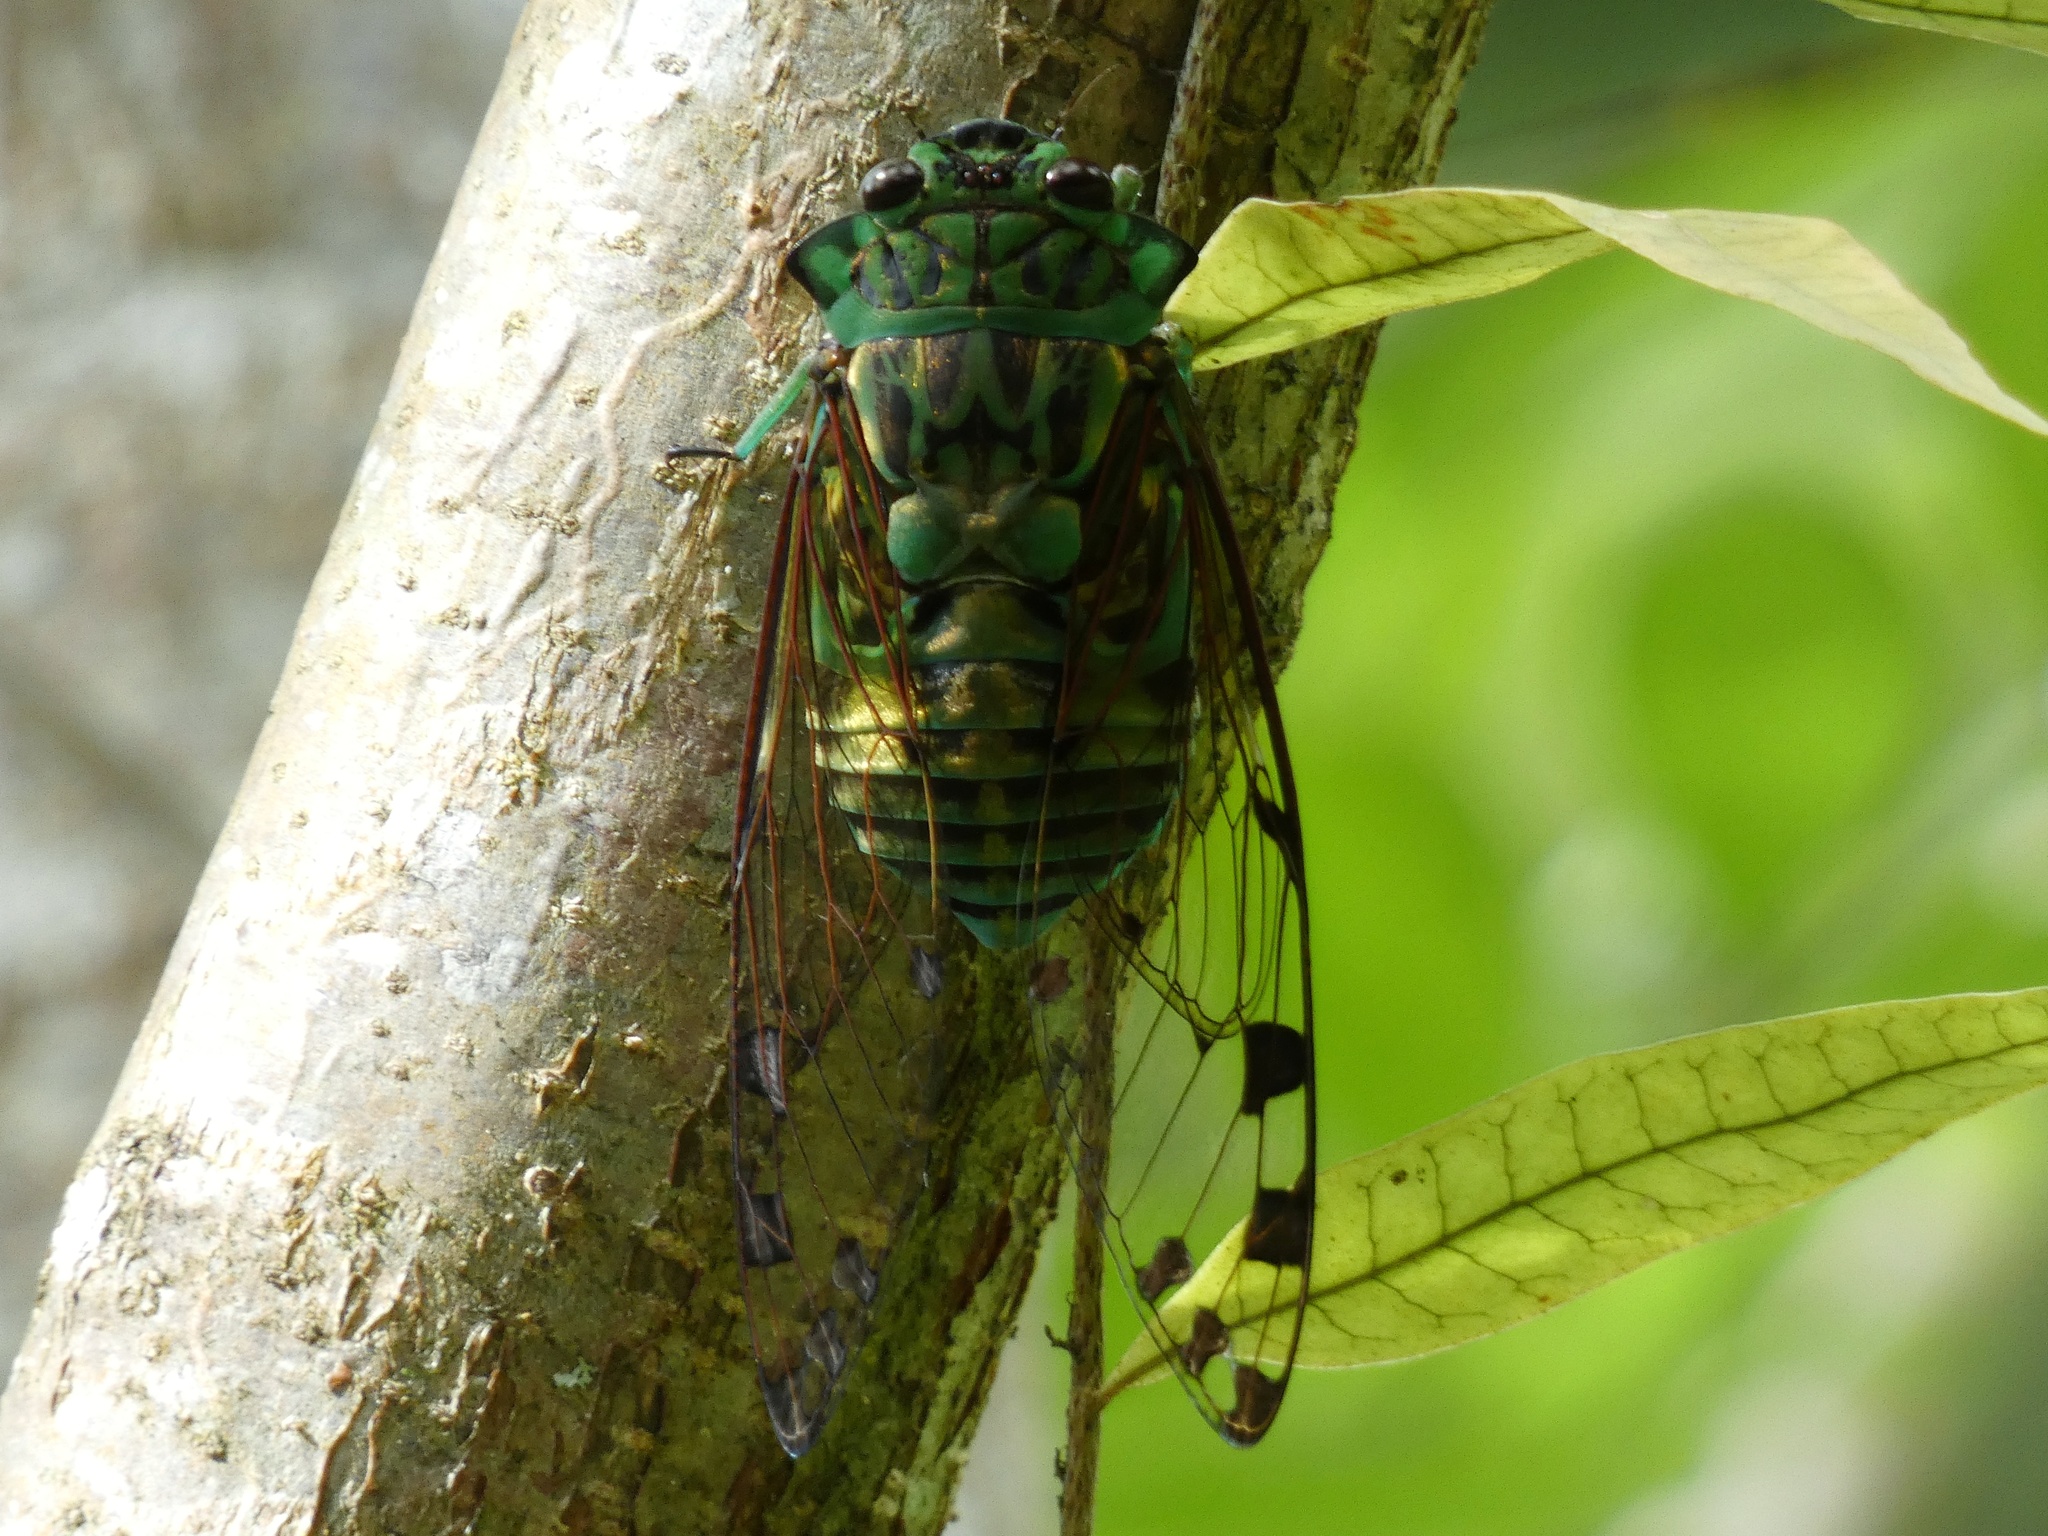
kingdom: Animalia
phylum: Arthropoda
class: Insecta
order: Hemiptera
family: Cicadidae
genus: Zammara
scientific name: Zammara smaragdina
